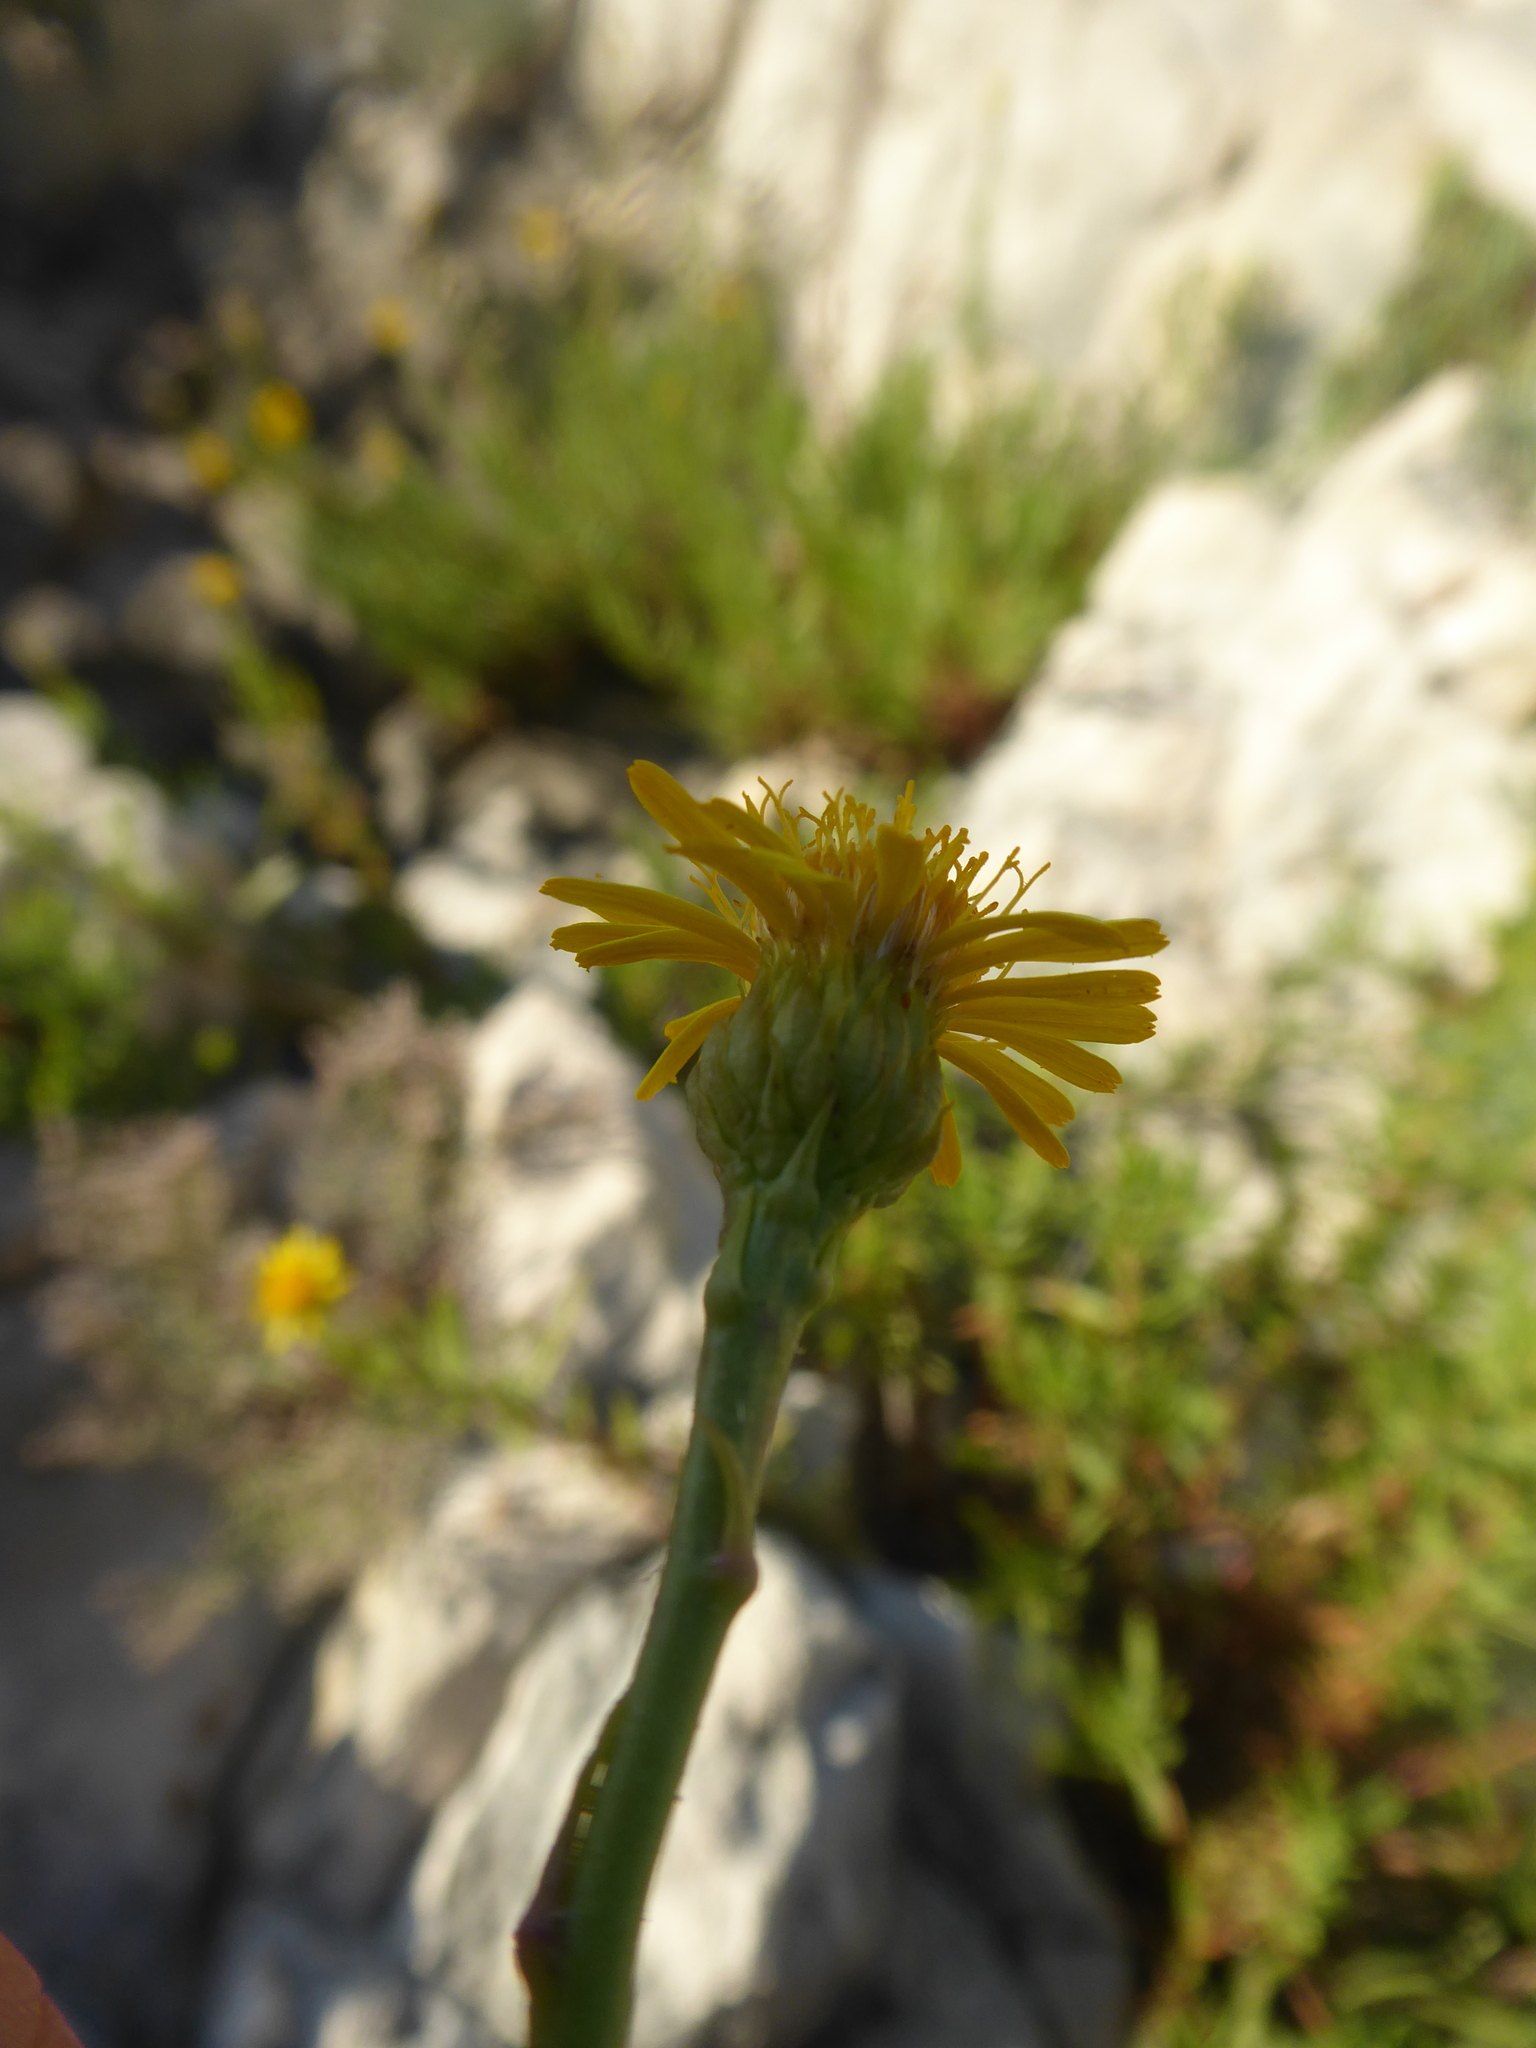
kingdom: Plantae
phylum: Tracheophyta
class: Magnoliopsida
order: Asterales
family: Asteraceae
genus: Limbarda
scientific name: Limbarda crithmoides
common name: Golden samphire
